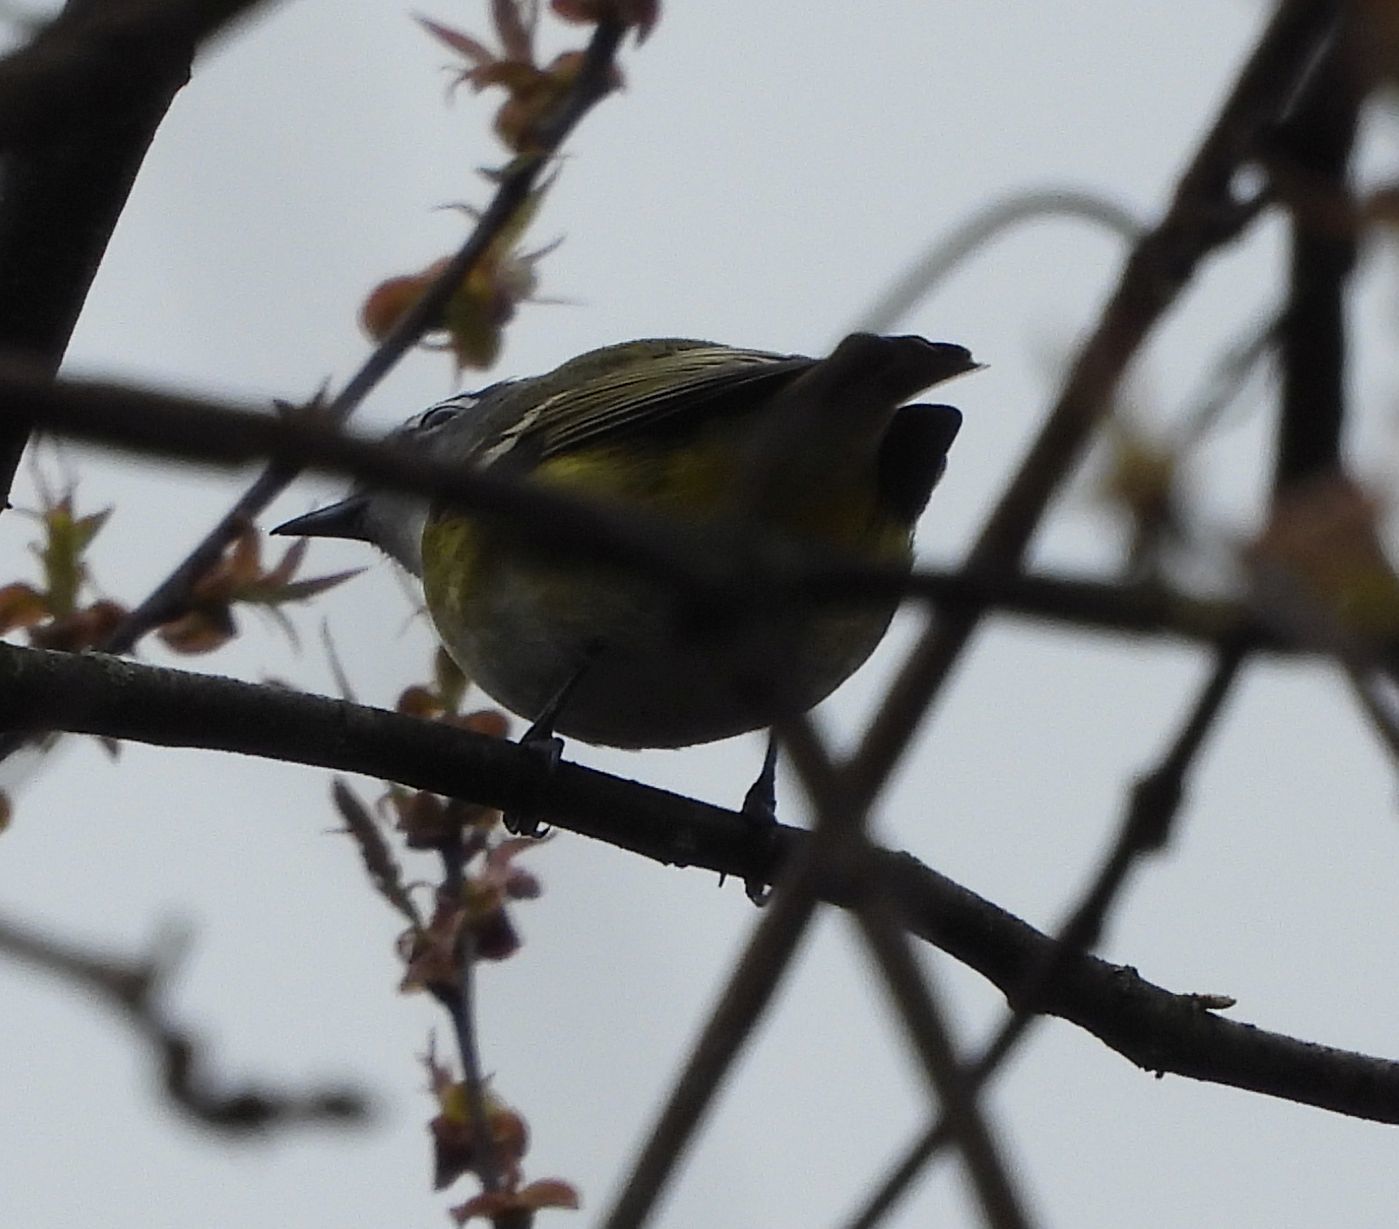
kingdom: Animalia
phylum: Chordata
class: Aves
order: Passeriformes
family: Vireonidae
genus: Vireo
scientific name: Vireo solitarius
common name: Blue-headed vireo
